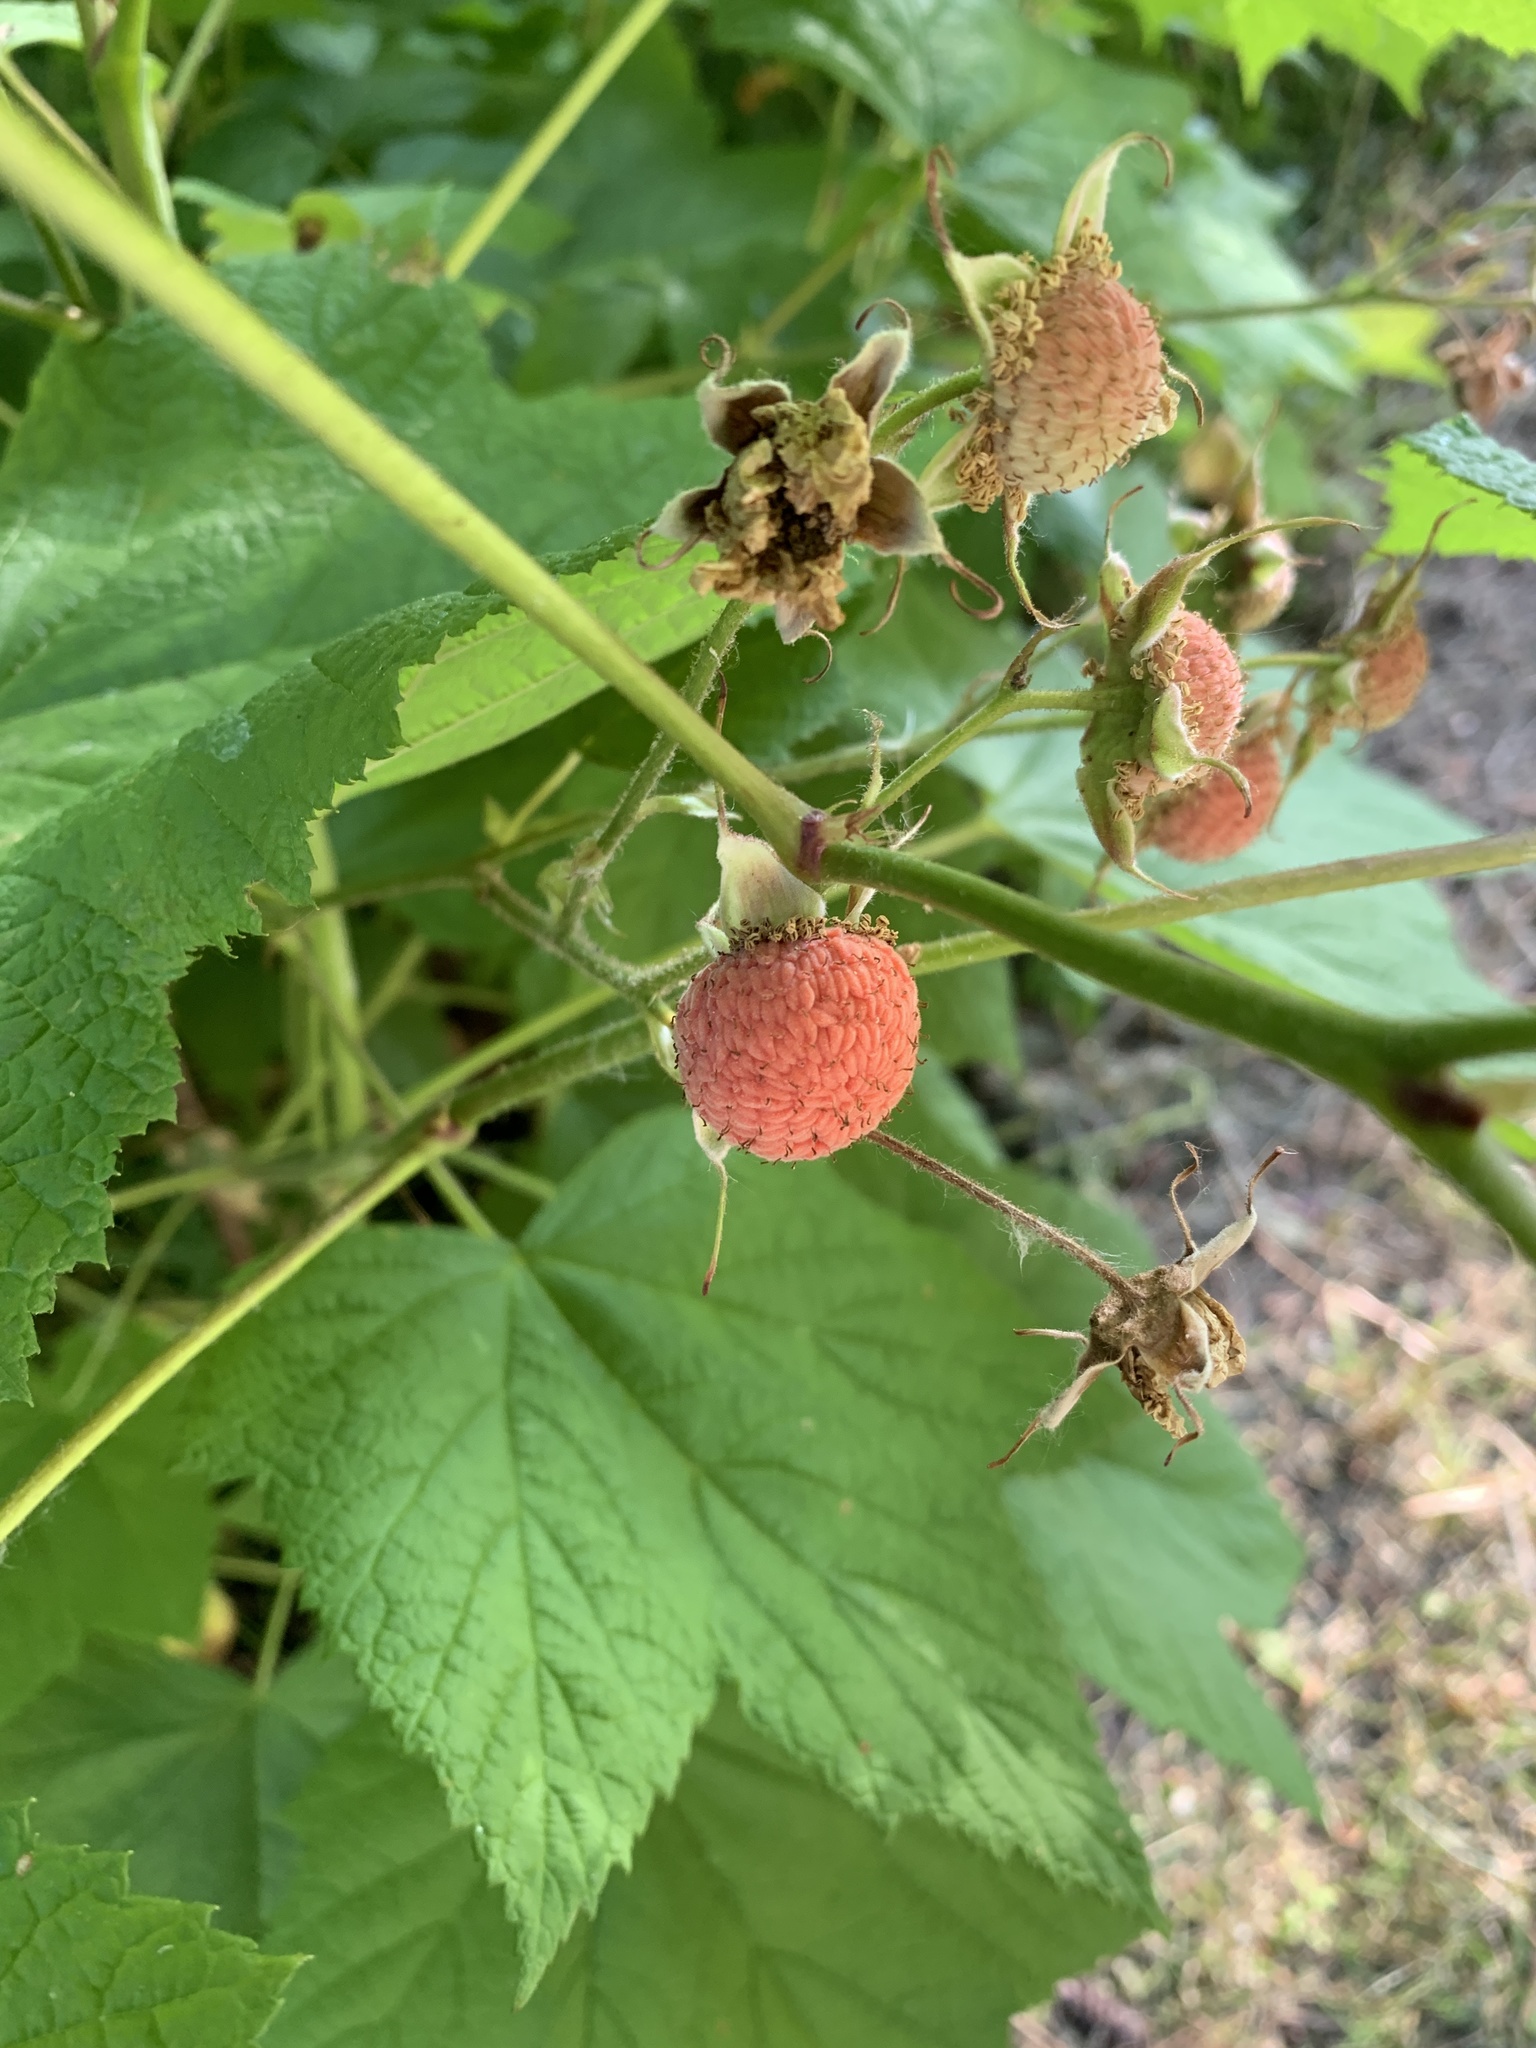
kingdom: Plantae
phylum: Tracheophyta
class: Magnoliopsida
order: Rosales
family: Rosaceae
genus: Rubus
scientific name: Rubus parviflorus
